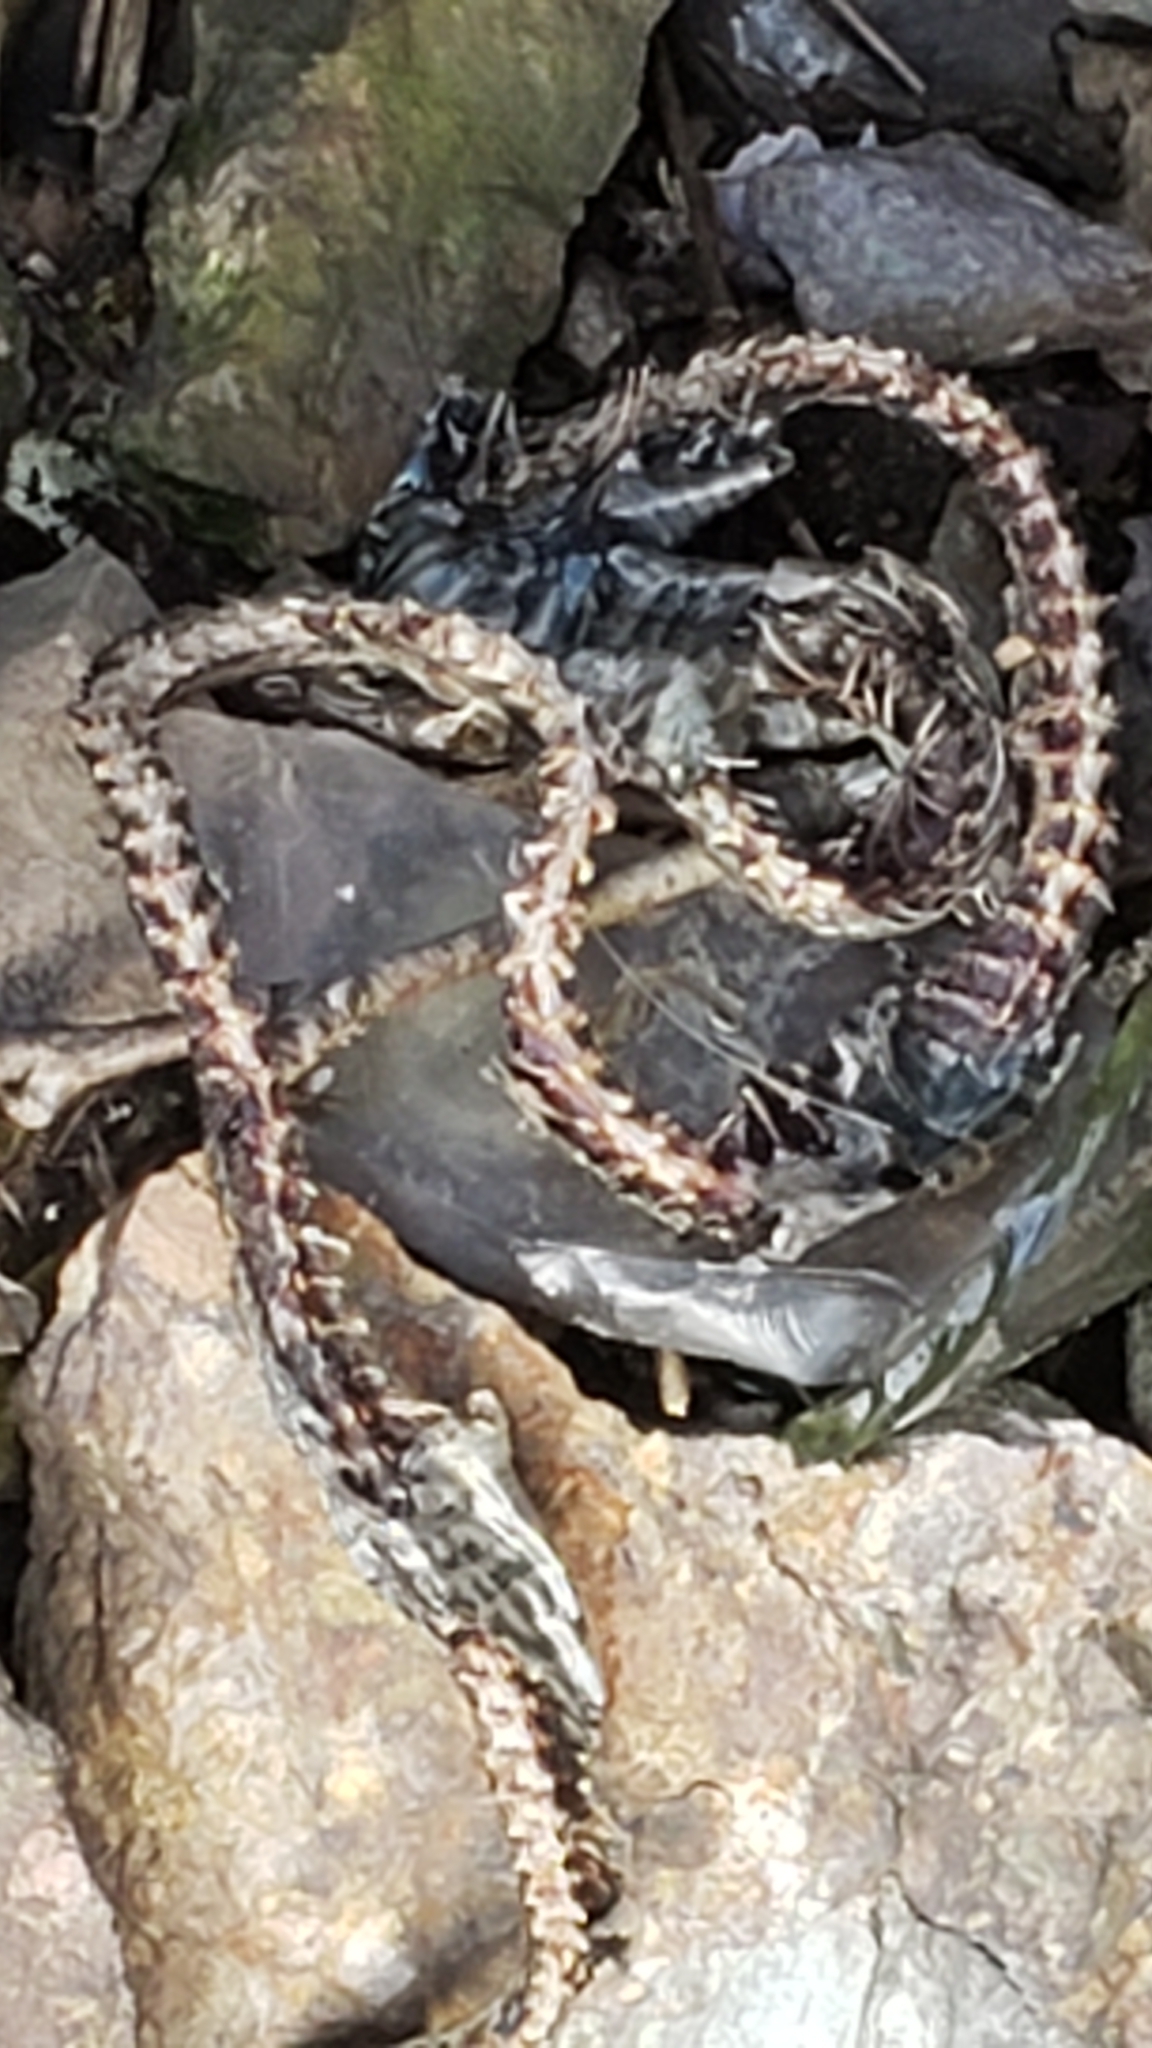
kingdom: Animalia
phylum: Chordata
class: Squamata
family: Colubridae
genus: Thamnophis
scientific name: Thamnophis sirtalis
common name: Common garter snake
